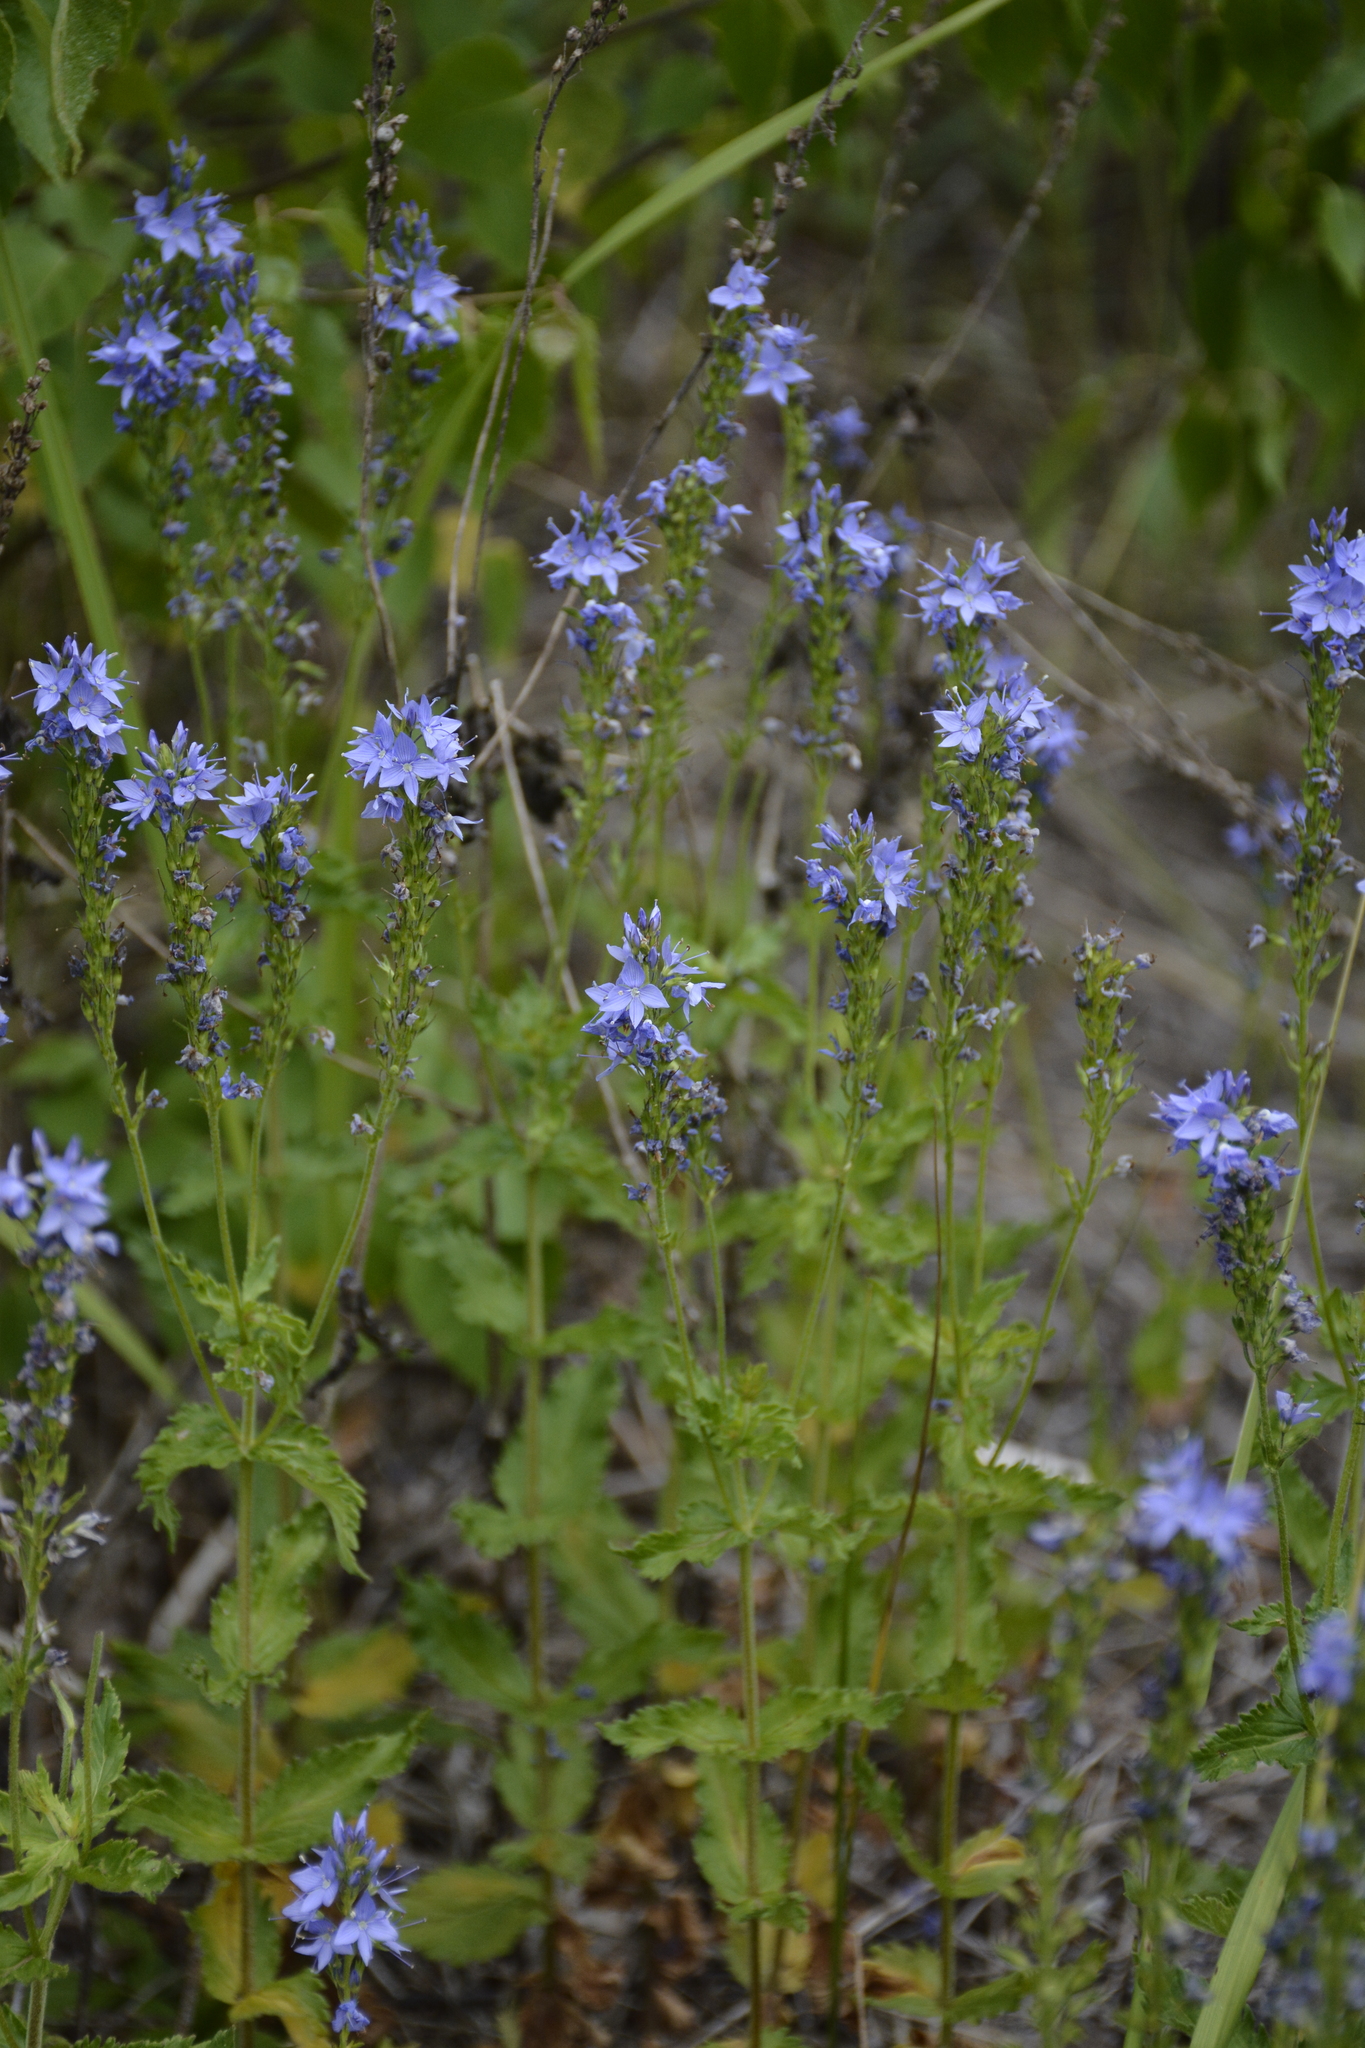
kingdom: Plantae
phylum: Tracheophyta
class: Magnoliopsida
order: Lamiales
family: Plantaginaceae
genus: Veronica
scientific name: Veronica teucrium
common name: Large speedwell
